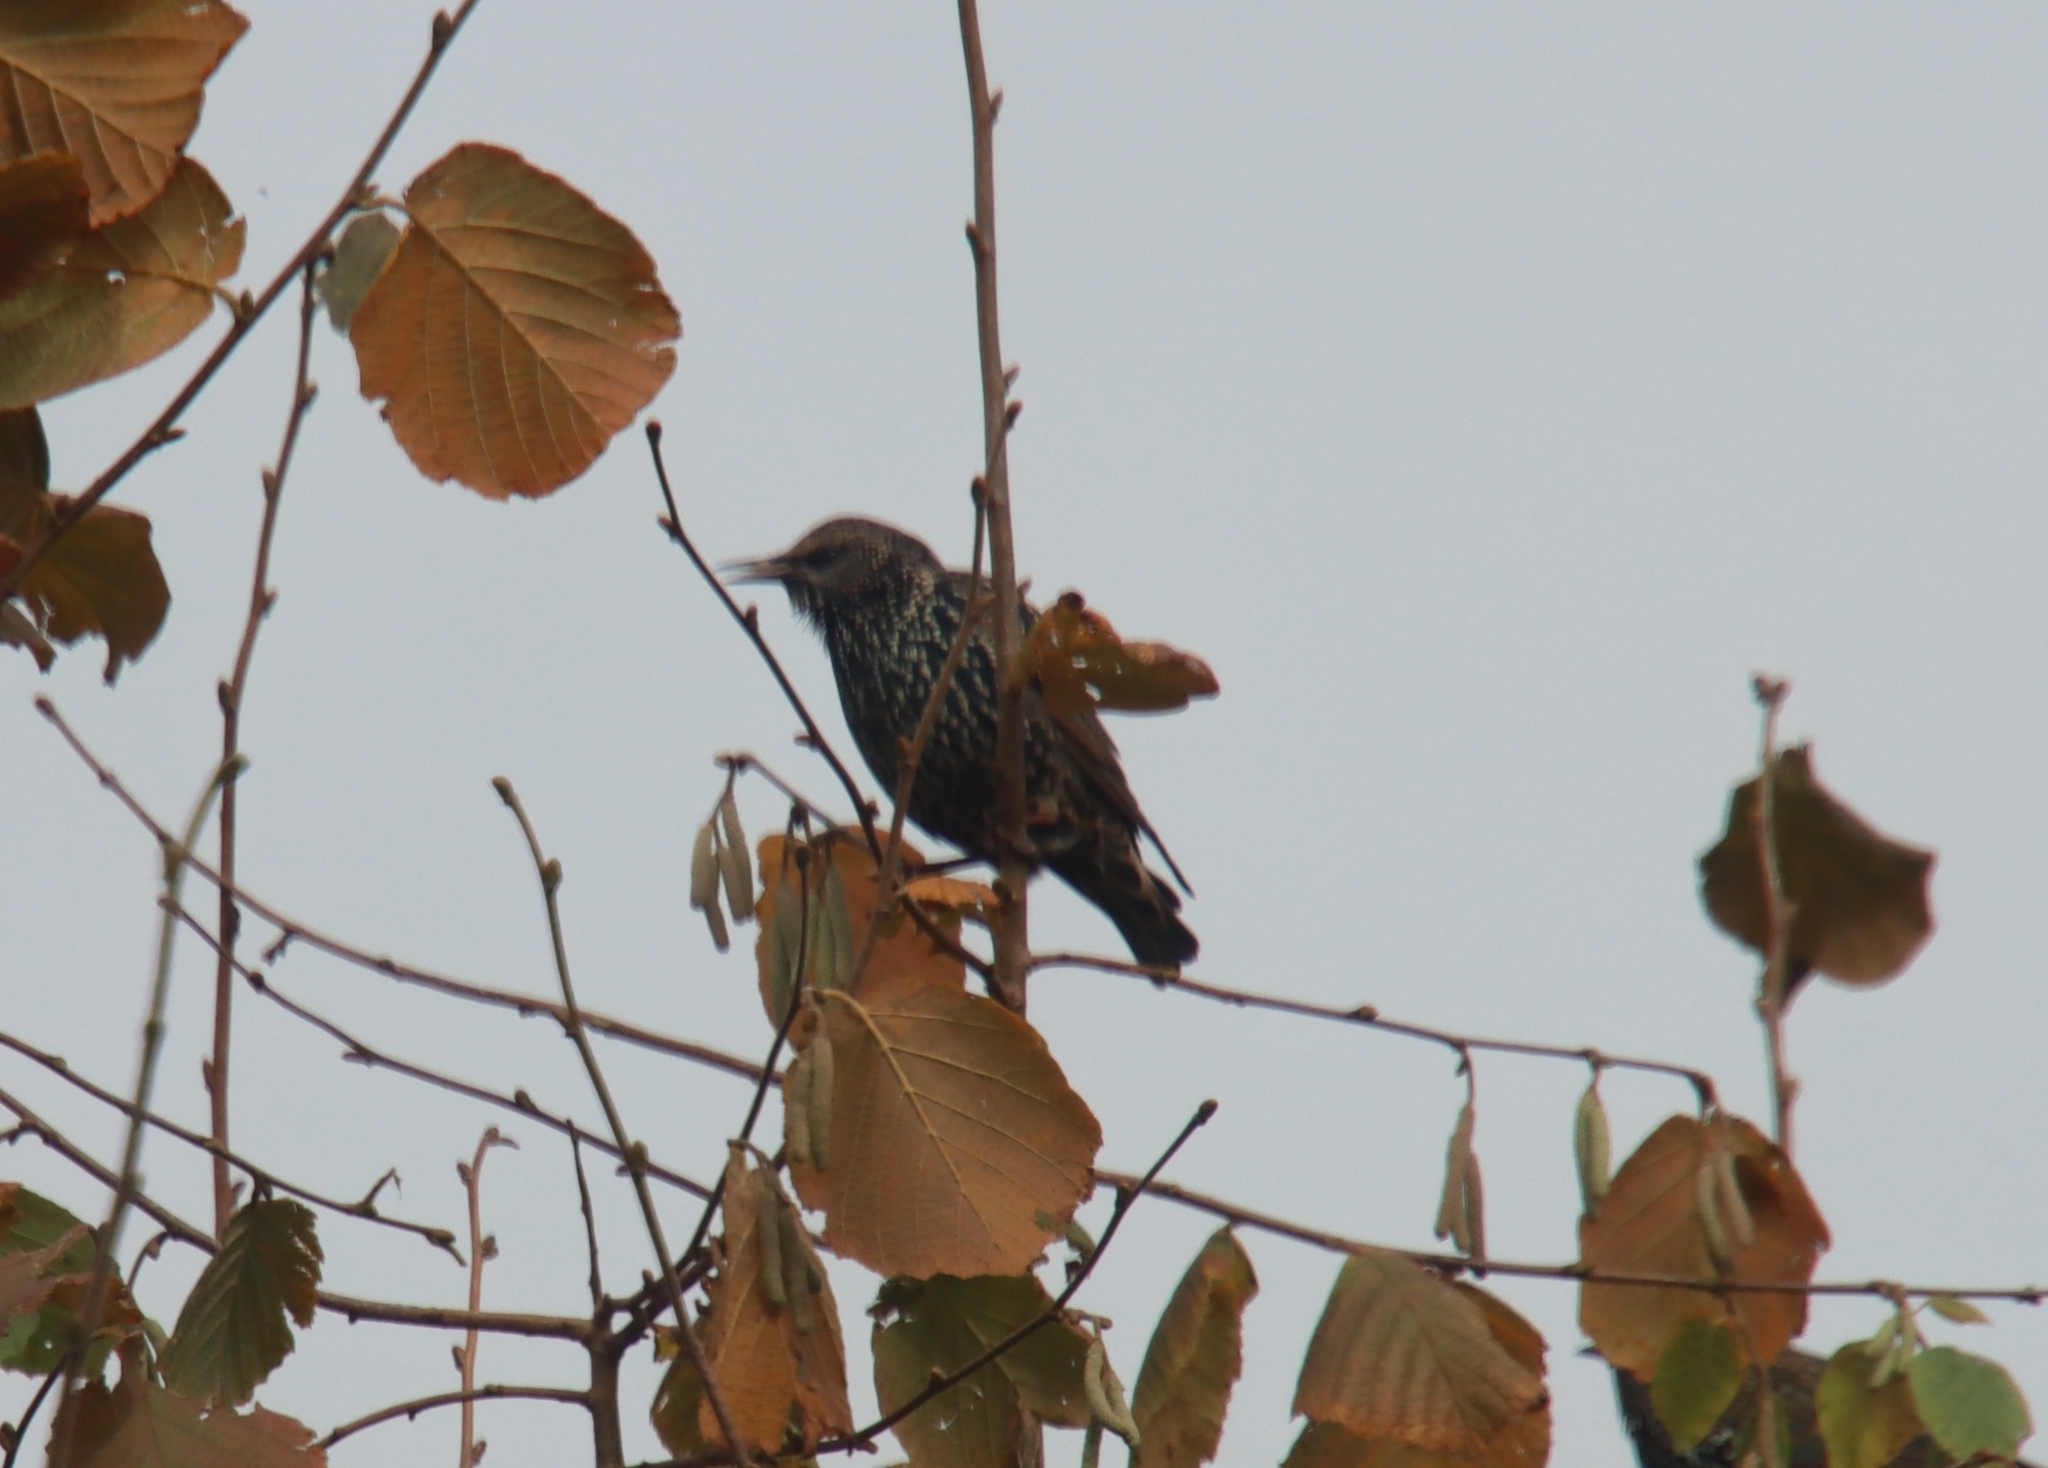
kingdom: Animalia
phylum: Chordata
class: Aves
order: Passeriformes
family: Sturnidae
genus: Sturnus
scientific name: Sturnus vulgaris
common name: Common starling
